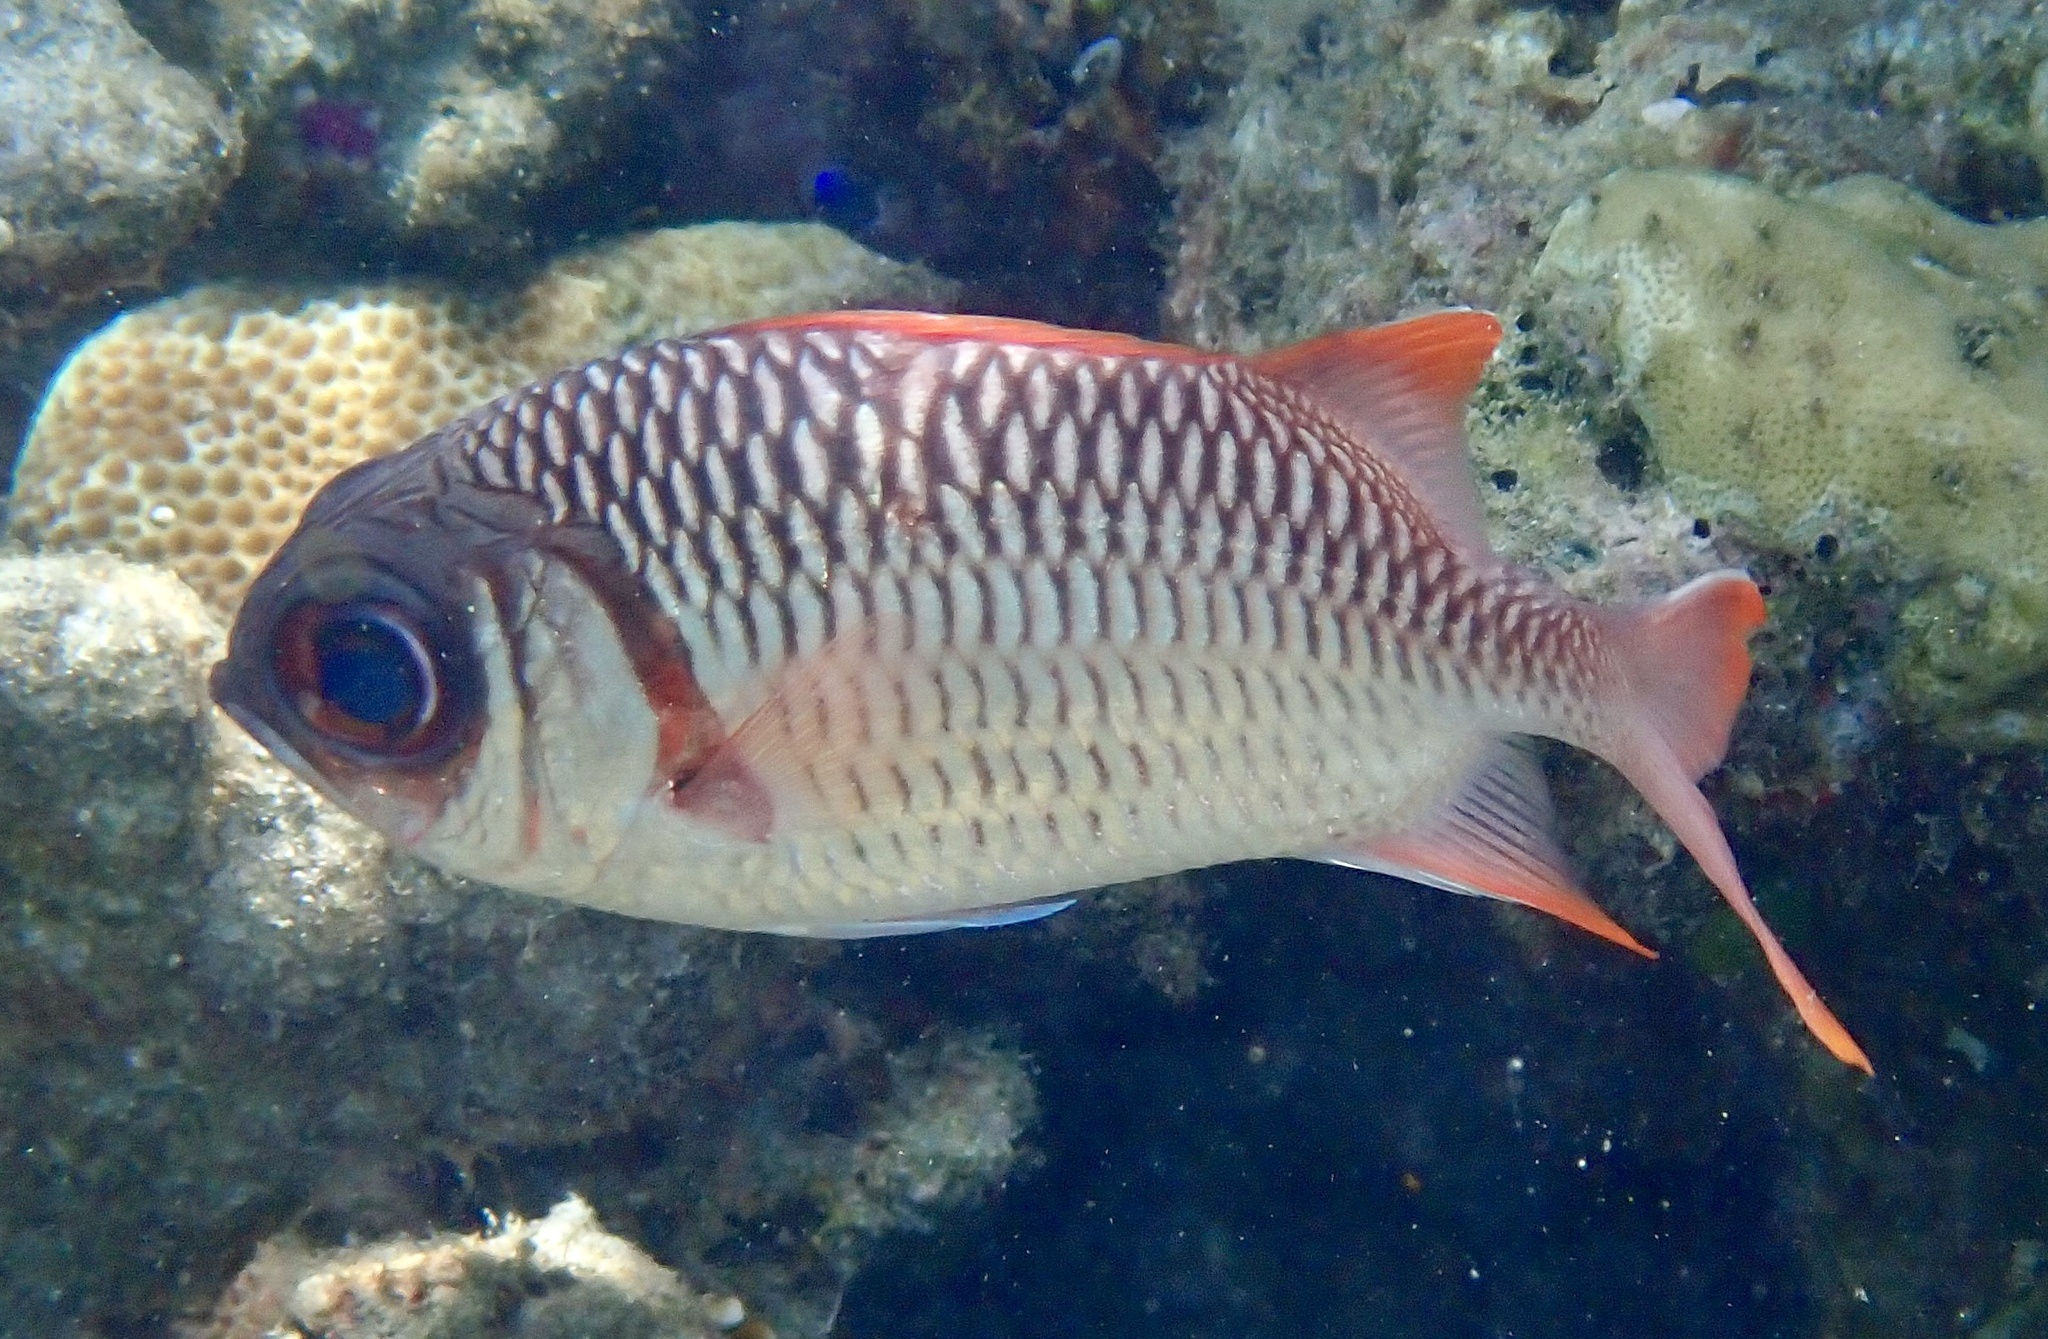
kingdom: Animalia
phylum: Chordata
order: Beryciformes
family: Holocentridae
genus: Myripristis
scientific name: Myripristis violacea
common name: Lattice soldierfish
